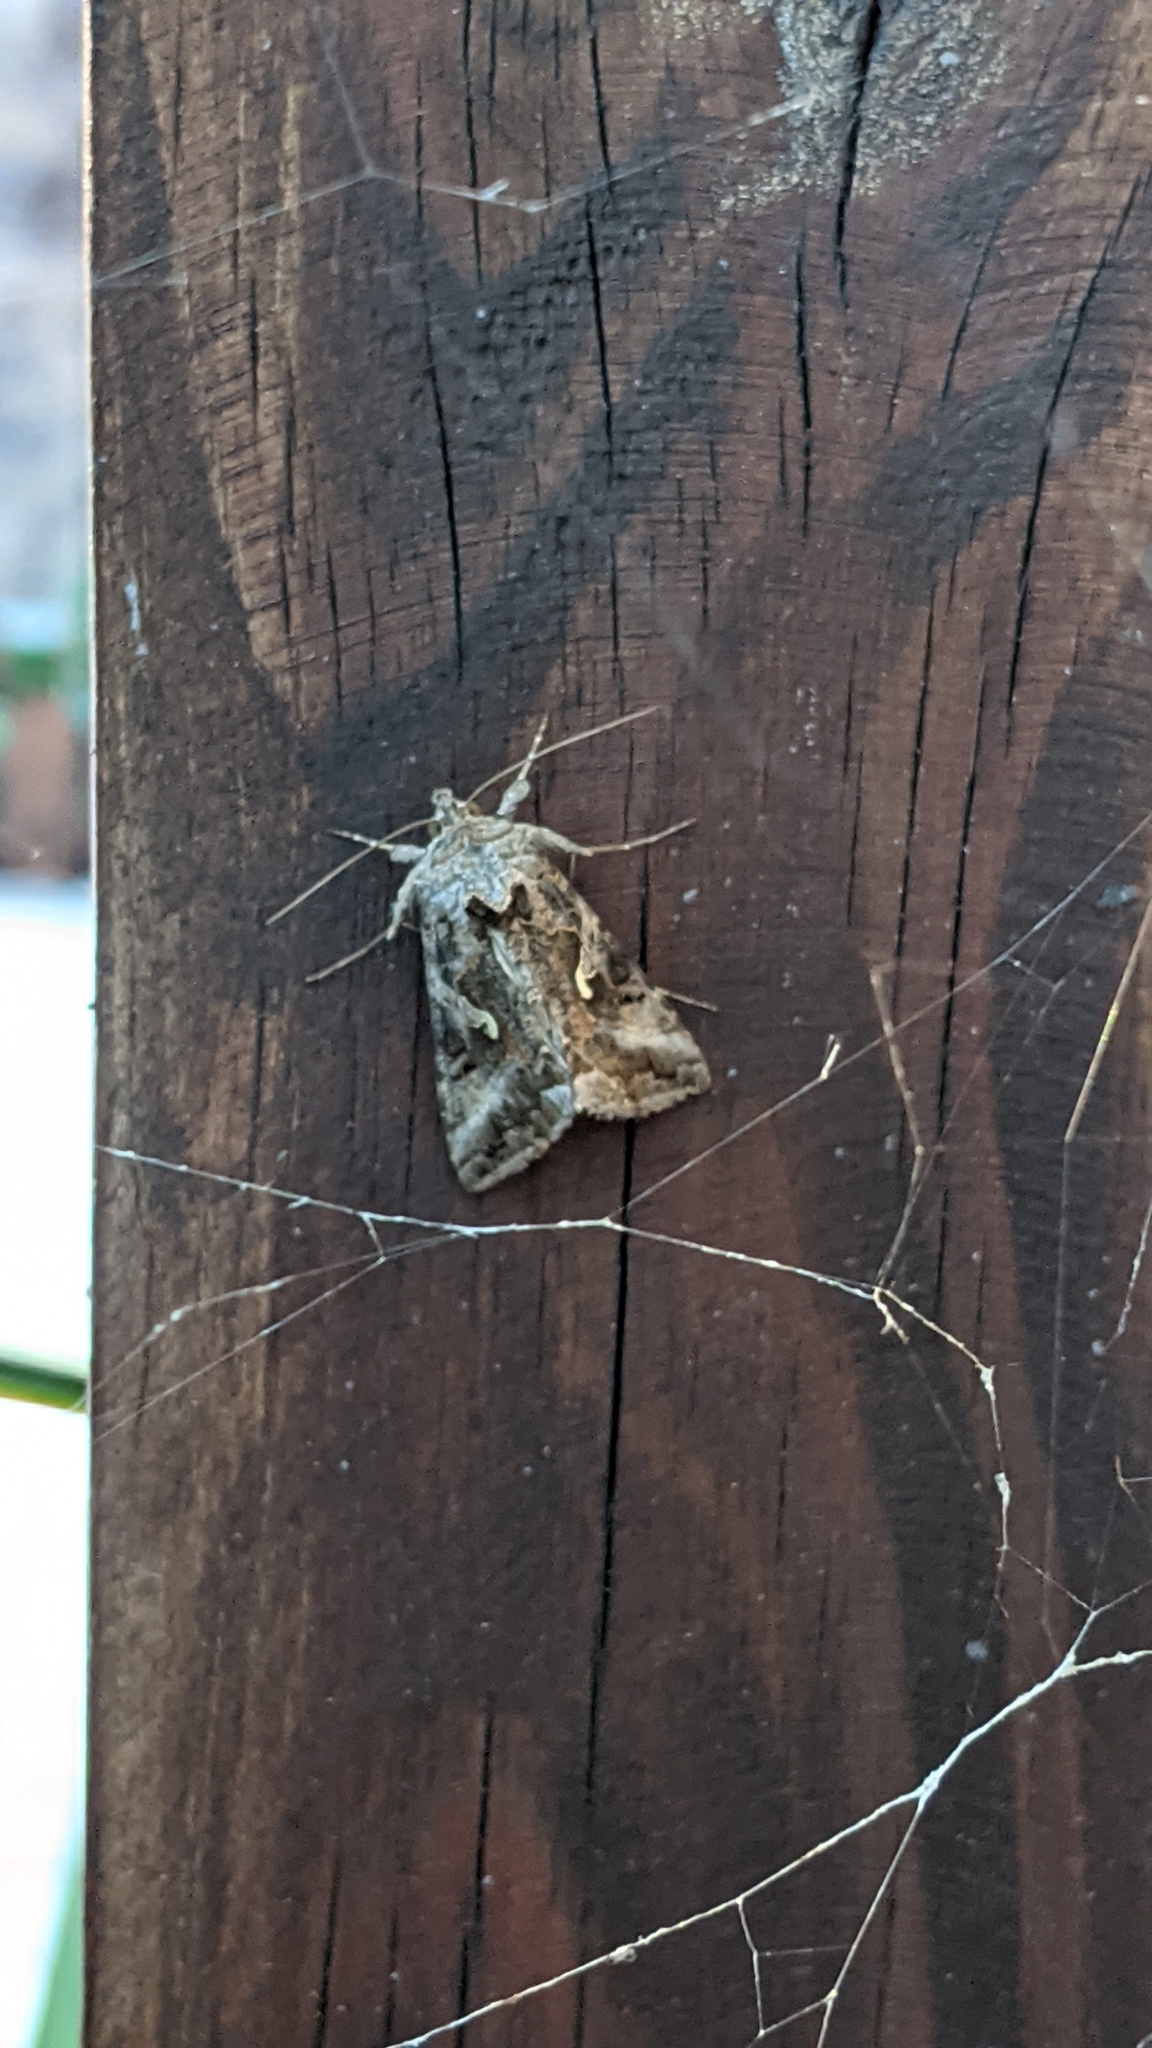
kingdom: Animalia
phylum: Arthropoda
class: Insecta
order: Lepidoptera
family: Noctuidae
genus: Autographa
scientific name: Autographa gamma
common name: Silver y
